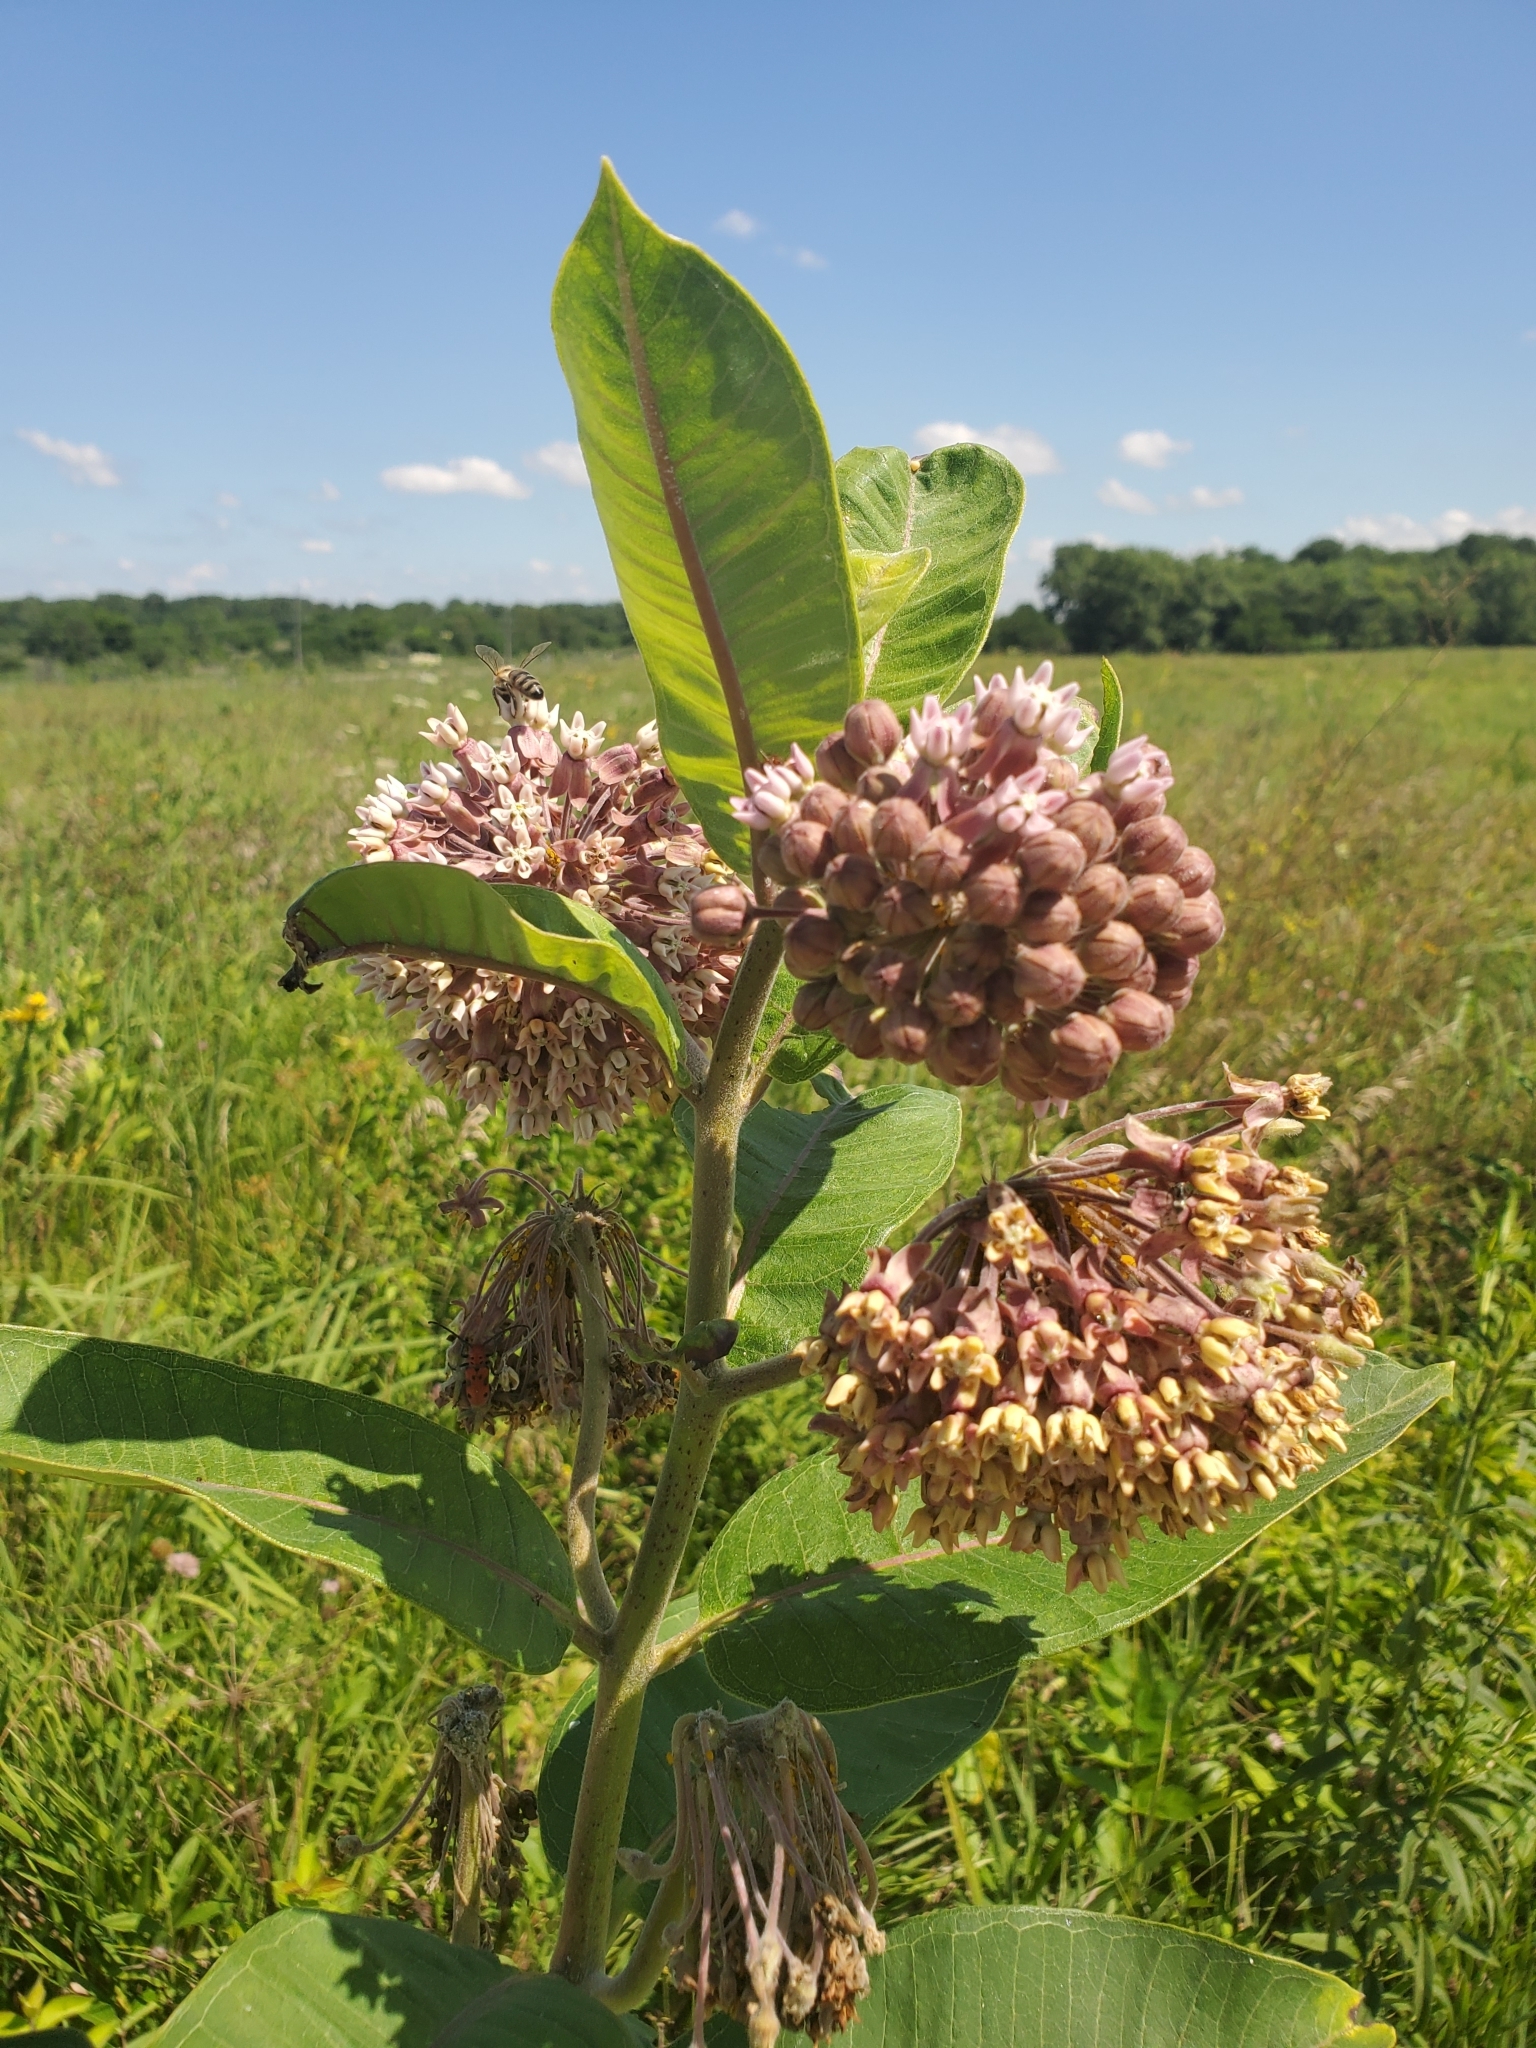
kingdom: Plantae
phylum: Tracheophyta
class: Magnoliopsida
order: Gentianales
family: Apocynaceae
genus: Asclepias
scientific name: Asclepias syriaca
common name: Common milkweed
